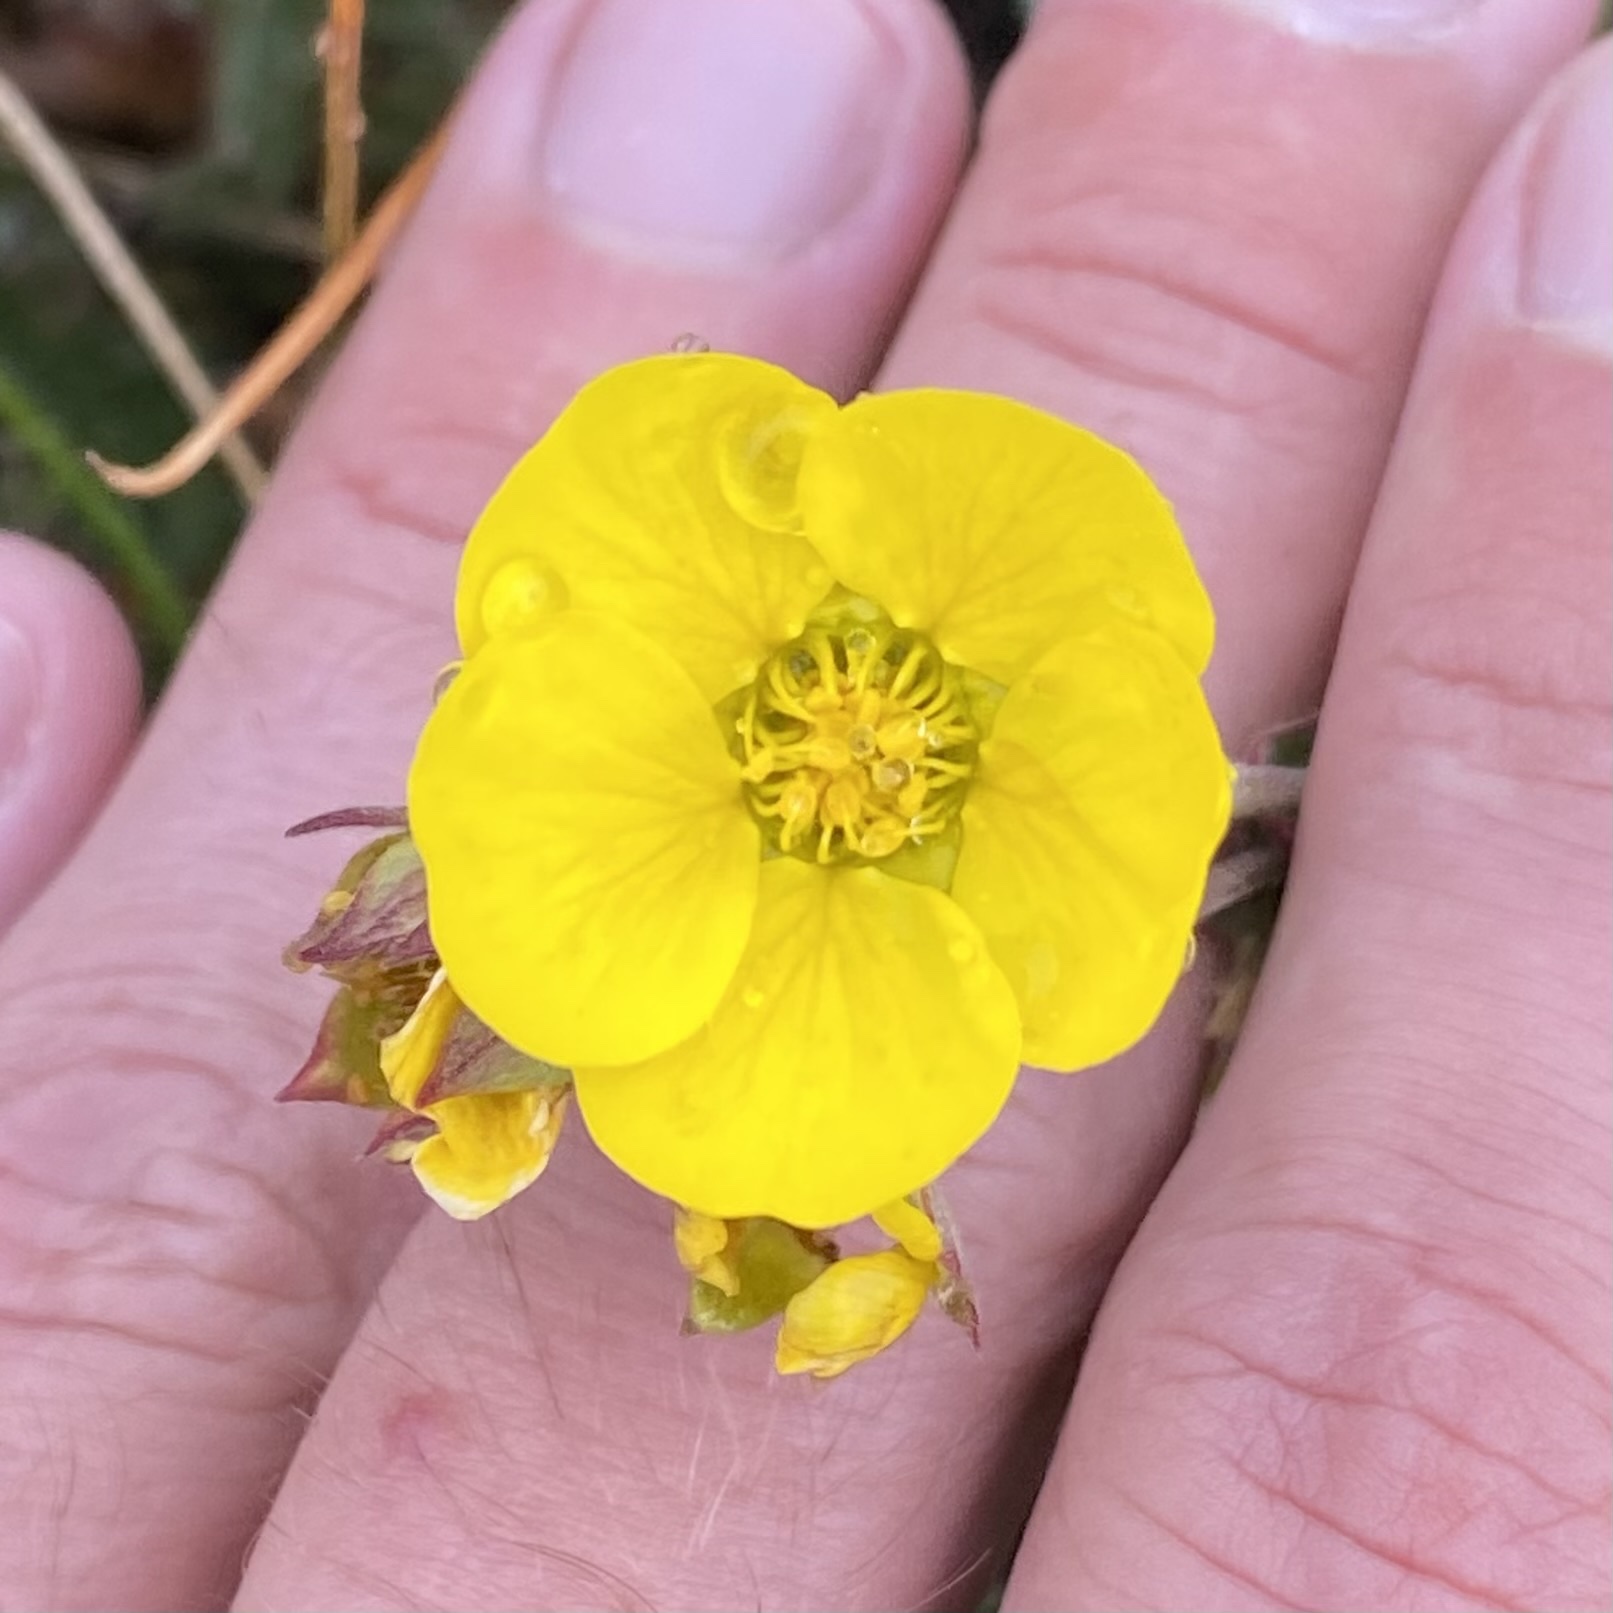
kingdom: Plantae
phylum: Tracheophyta
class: Magnoliopsida
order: Rosales
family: Rosaceae
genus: Geum
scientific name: Geum rossii
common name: Alpine avens
